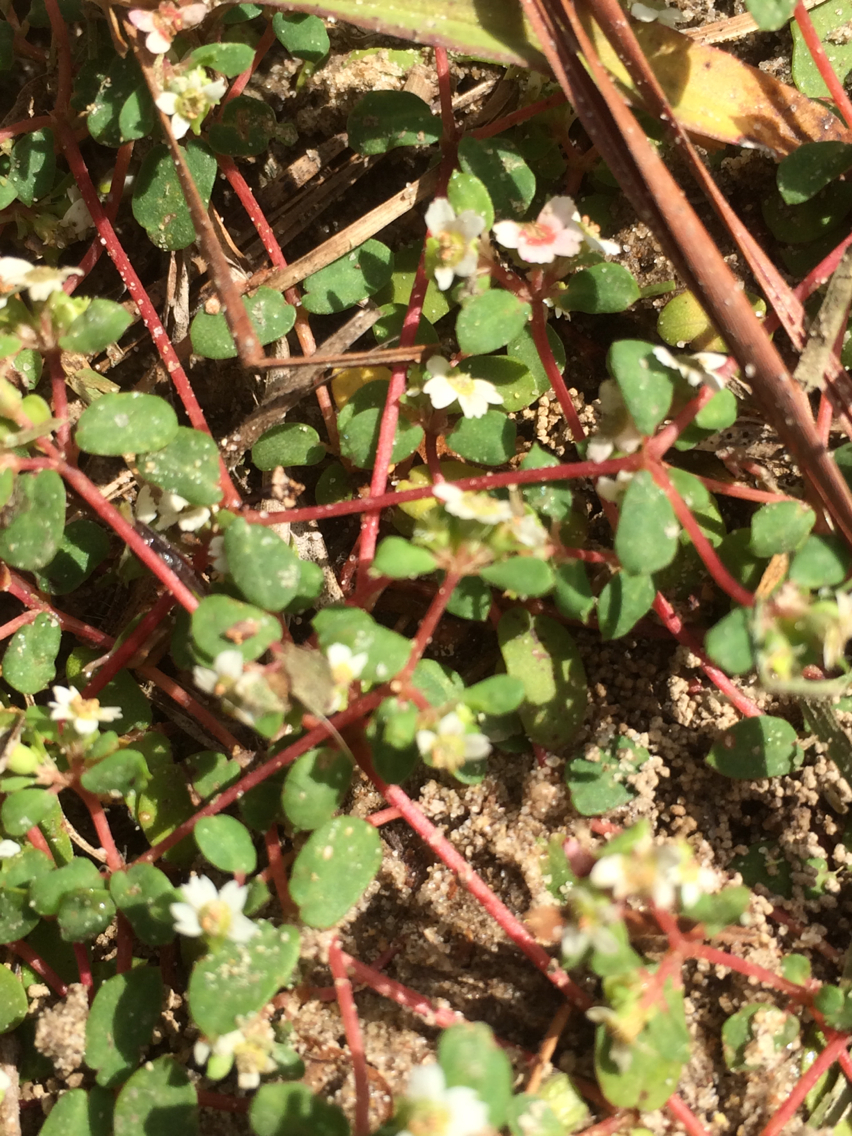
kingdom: Plantae
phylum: Tracheophyta
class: Magnoliopsida
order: Malpighiales
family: Euphorbiaceae
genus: Euphorbia
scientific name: Euphorbia cordifolia
